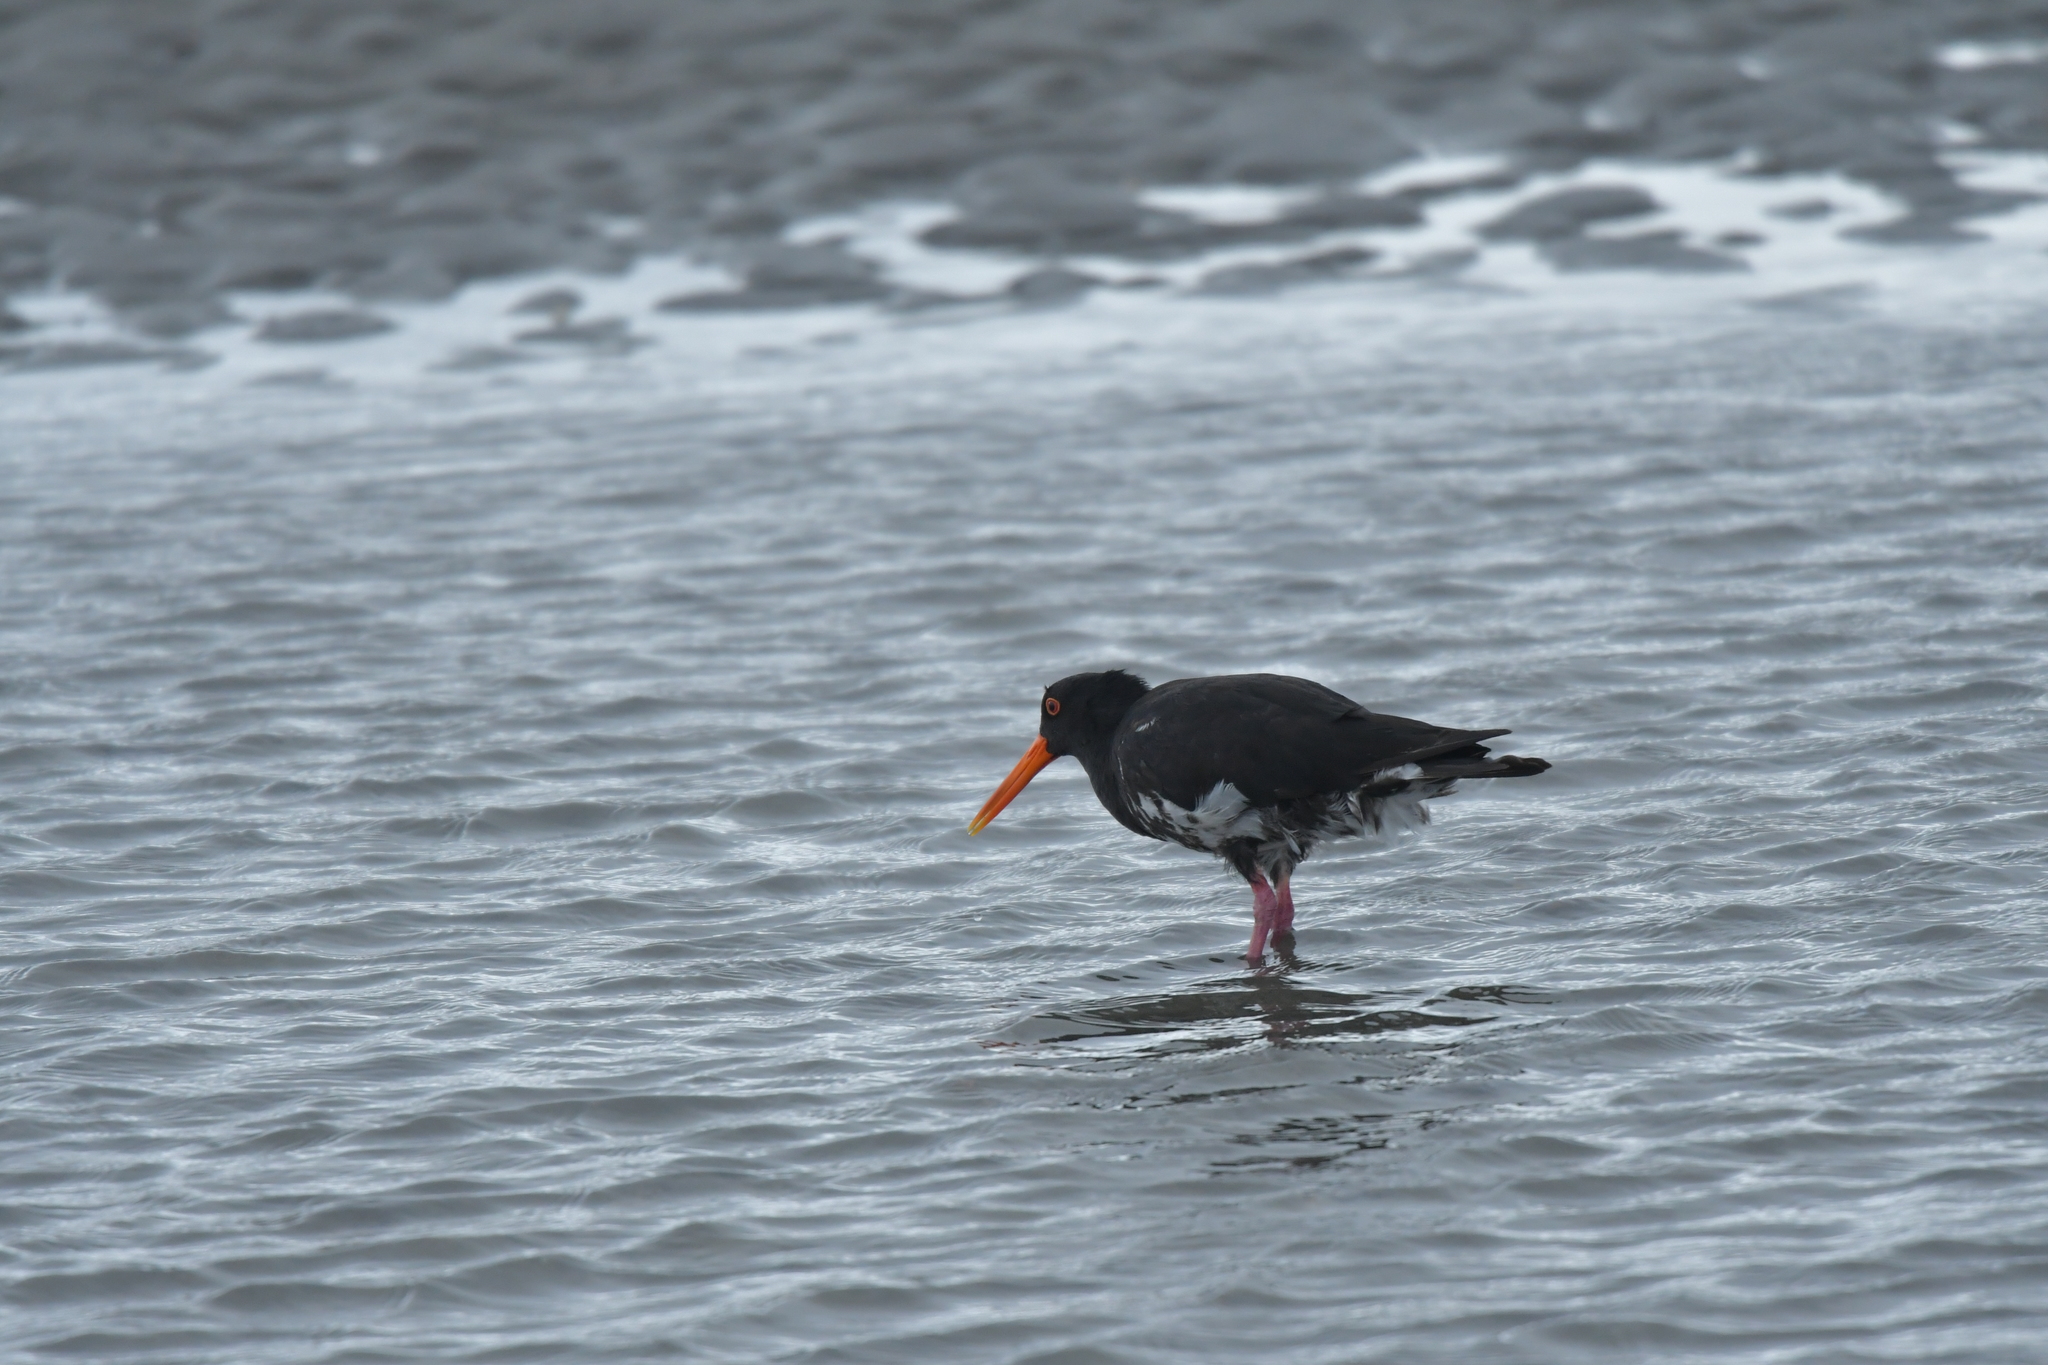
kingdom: Animalia
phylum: Chordata
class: Aves
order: Charadriiformes
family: Haematopodidae
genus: Haematopus
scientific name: Haematopus unicolor
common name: Variable oystercatcher
